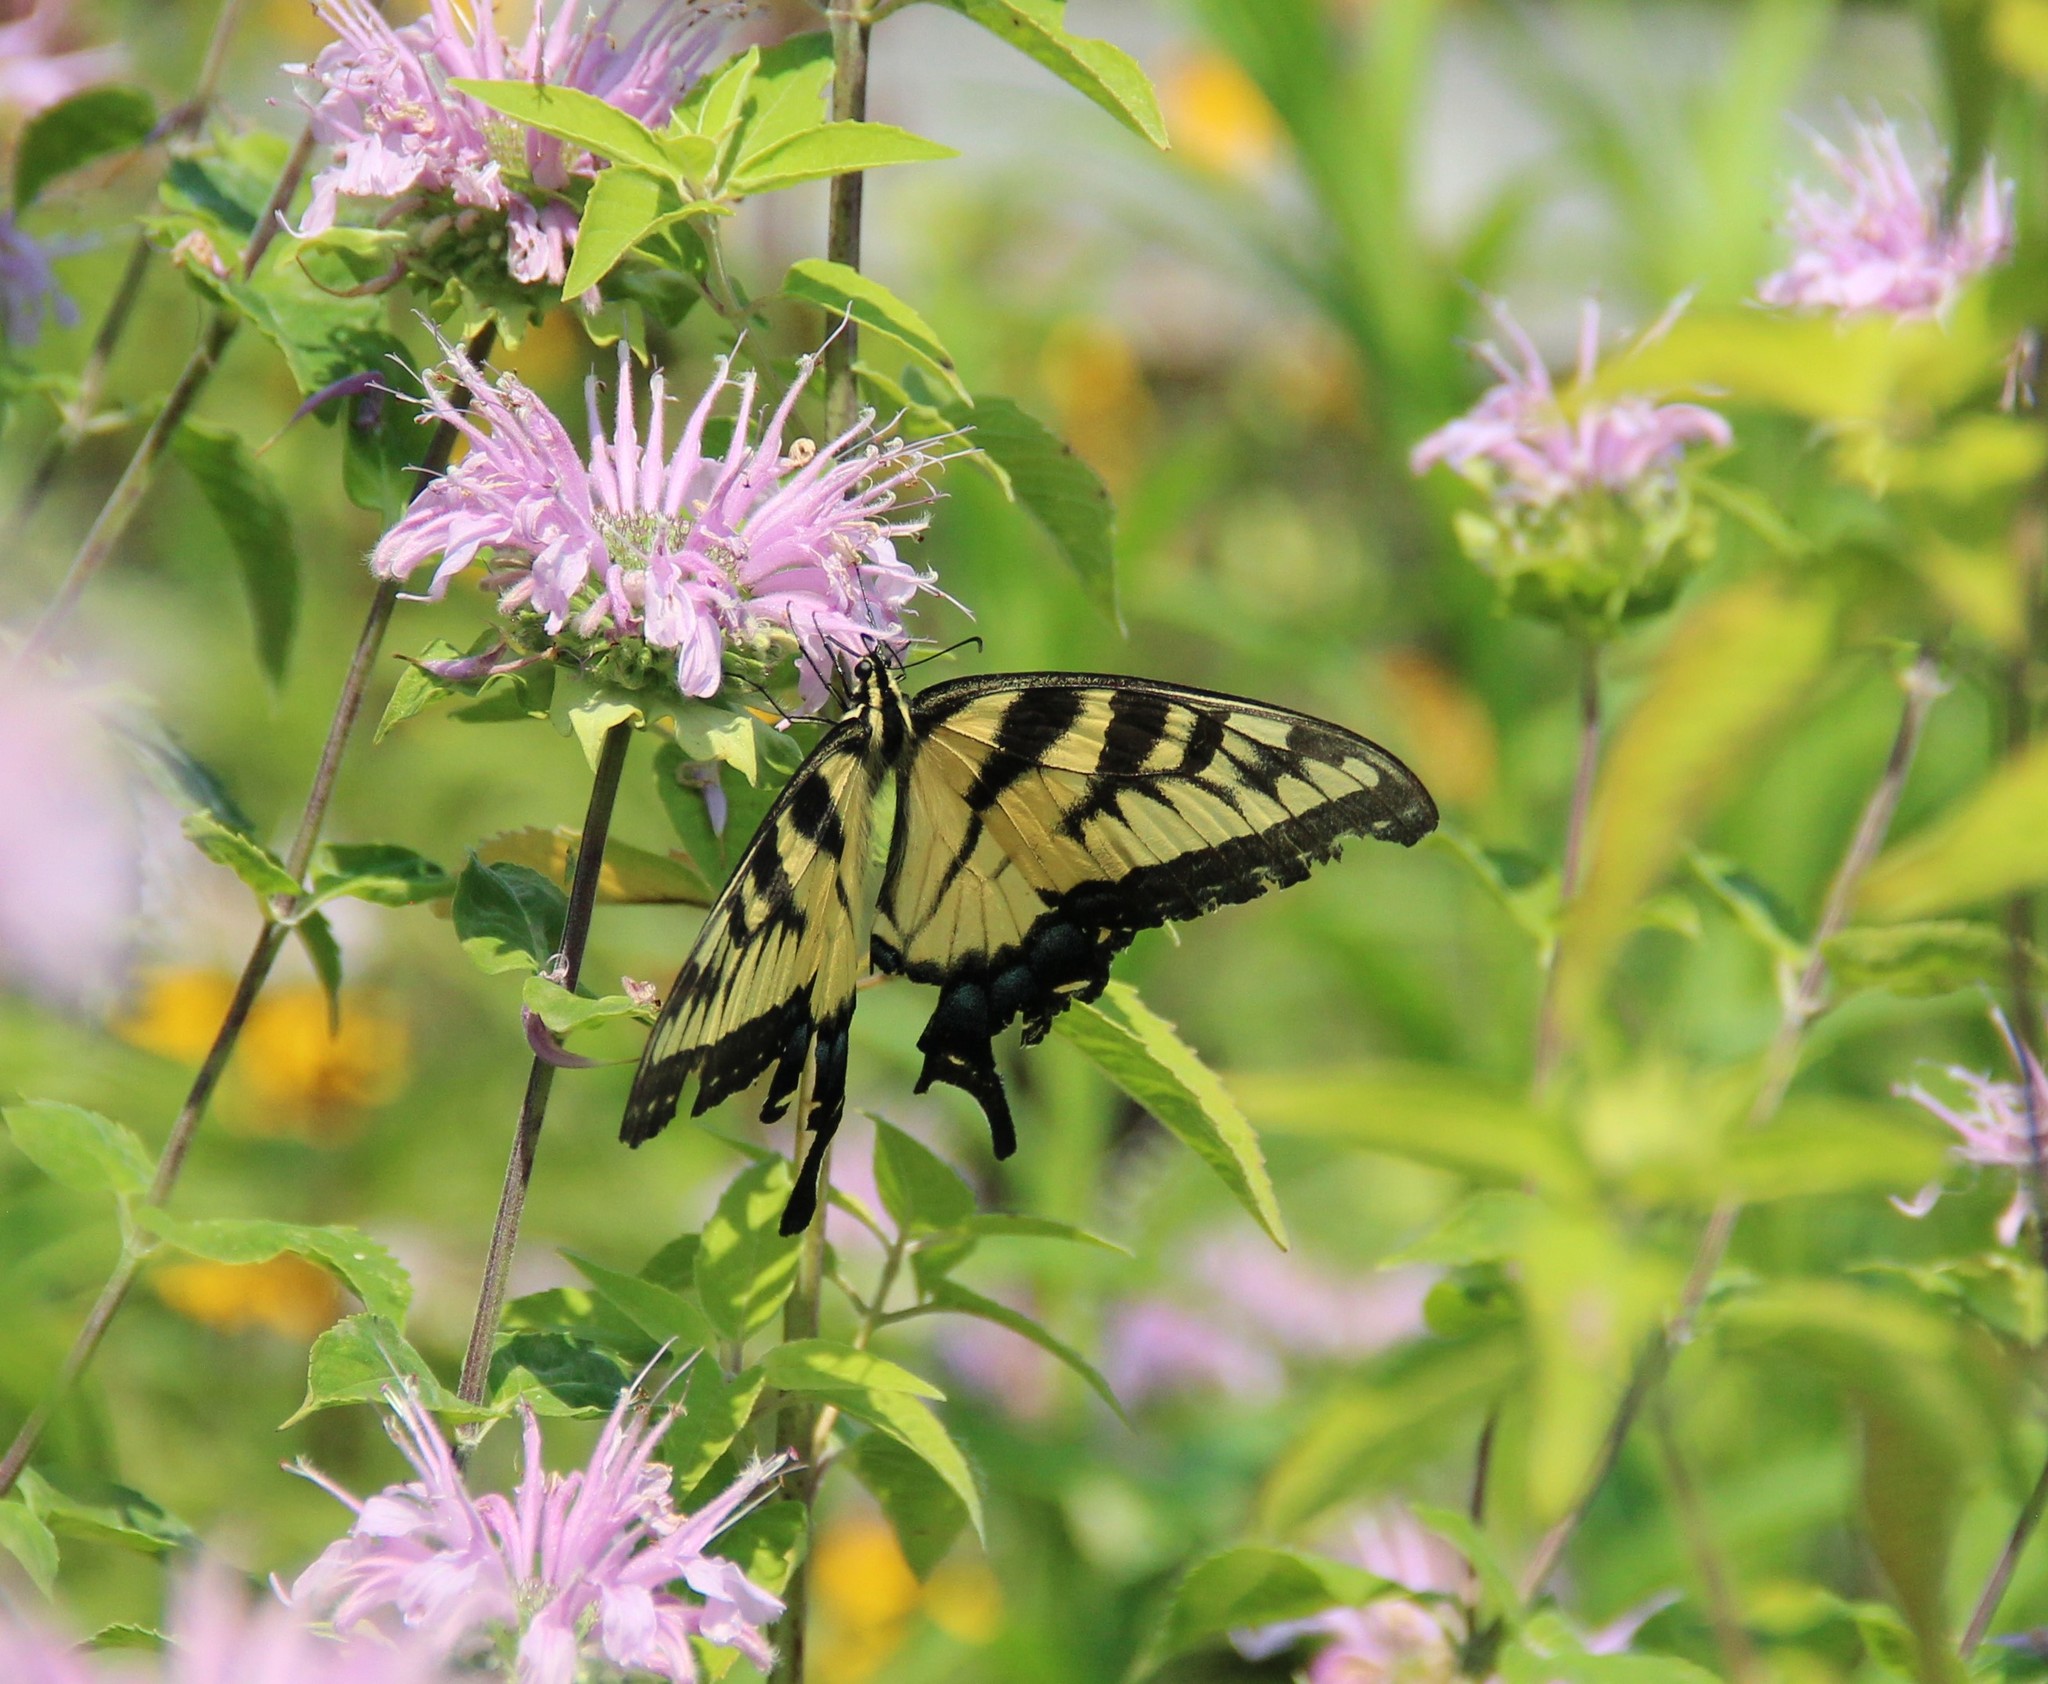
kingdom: Animalia
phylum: Arthropoda
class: Insecta
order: Lepidoptera
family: Papilionidae
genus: Papilio
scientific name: Papilio glaucus
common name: Tiger swallowtail
